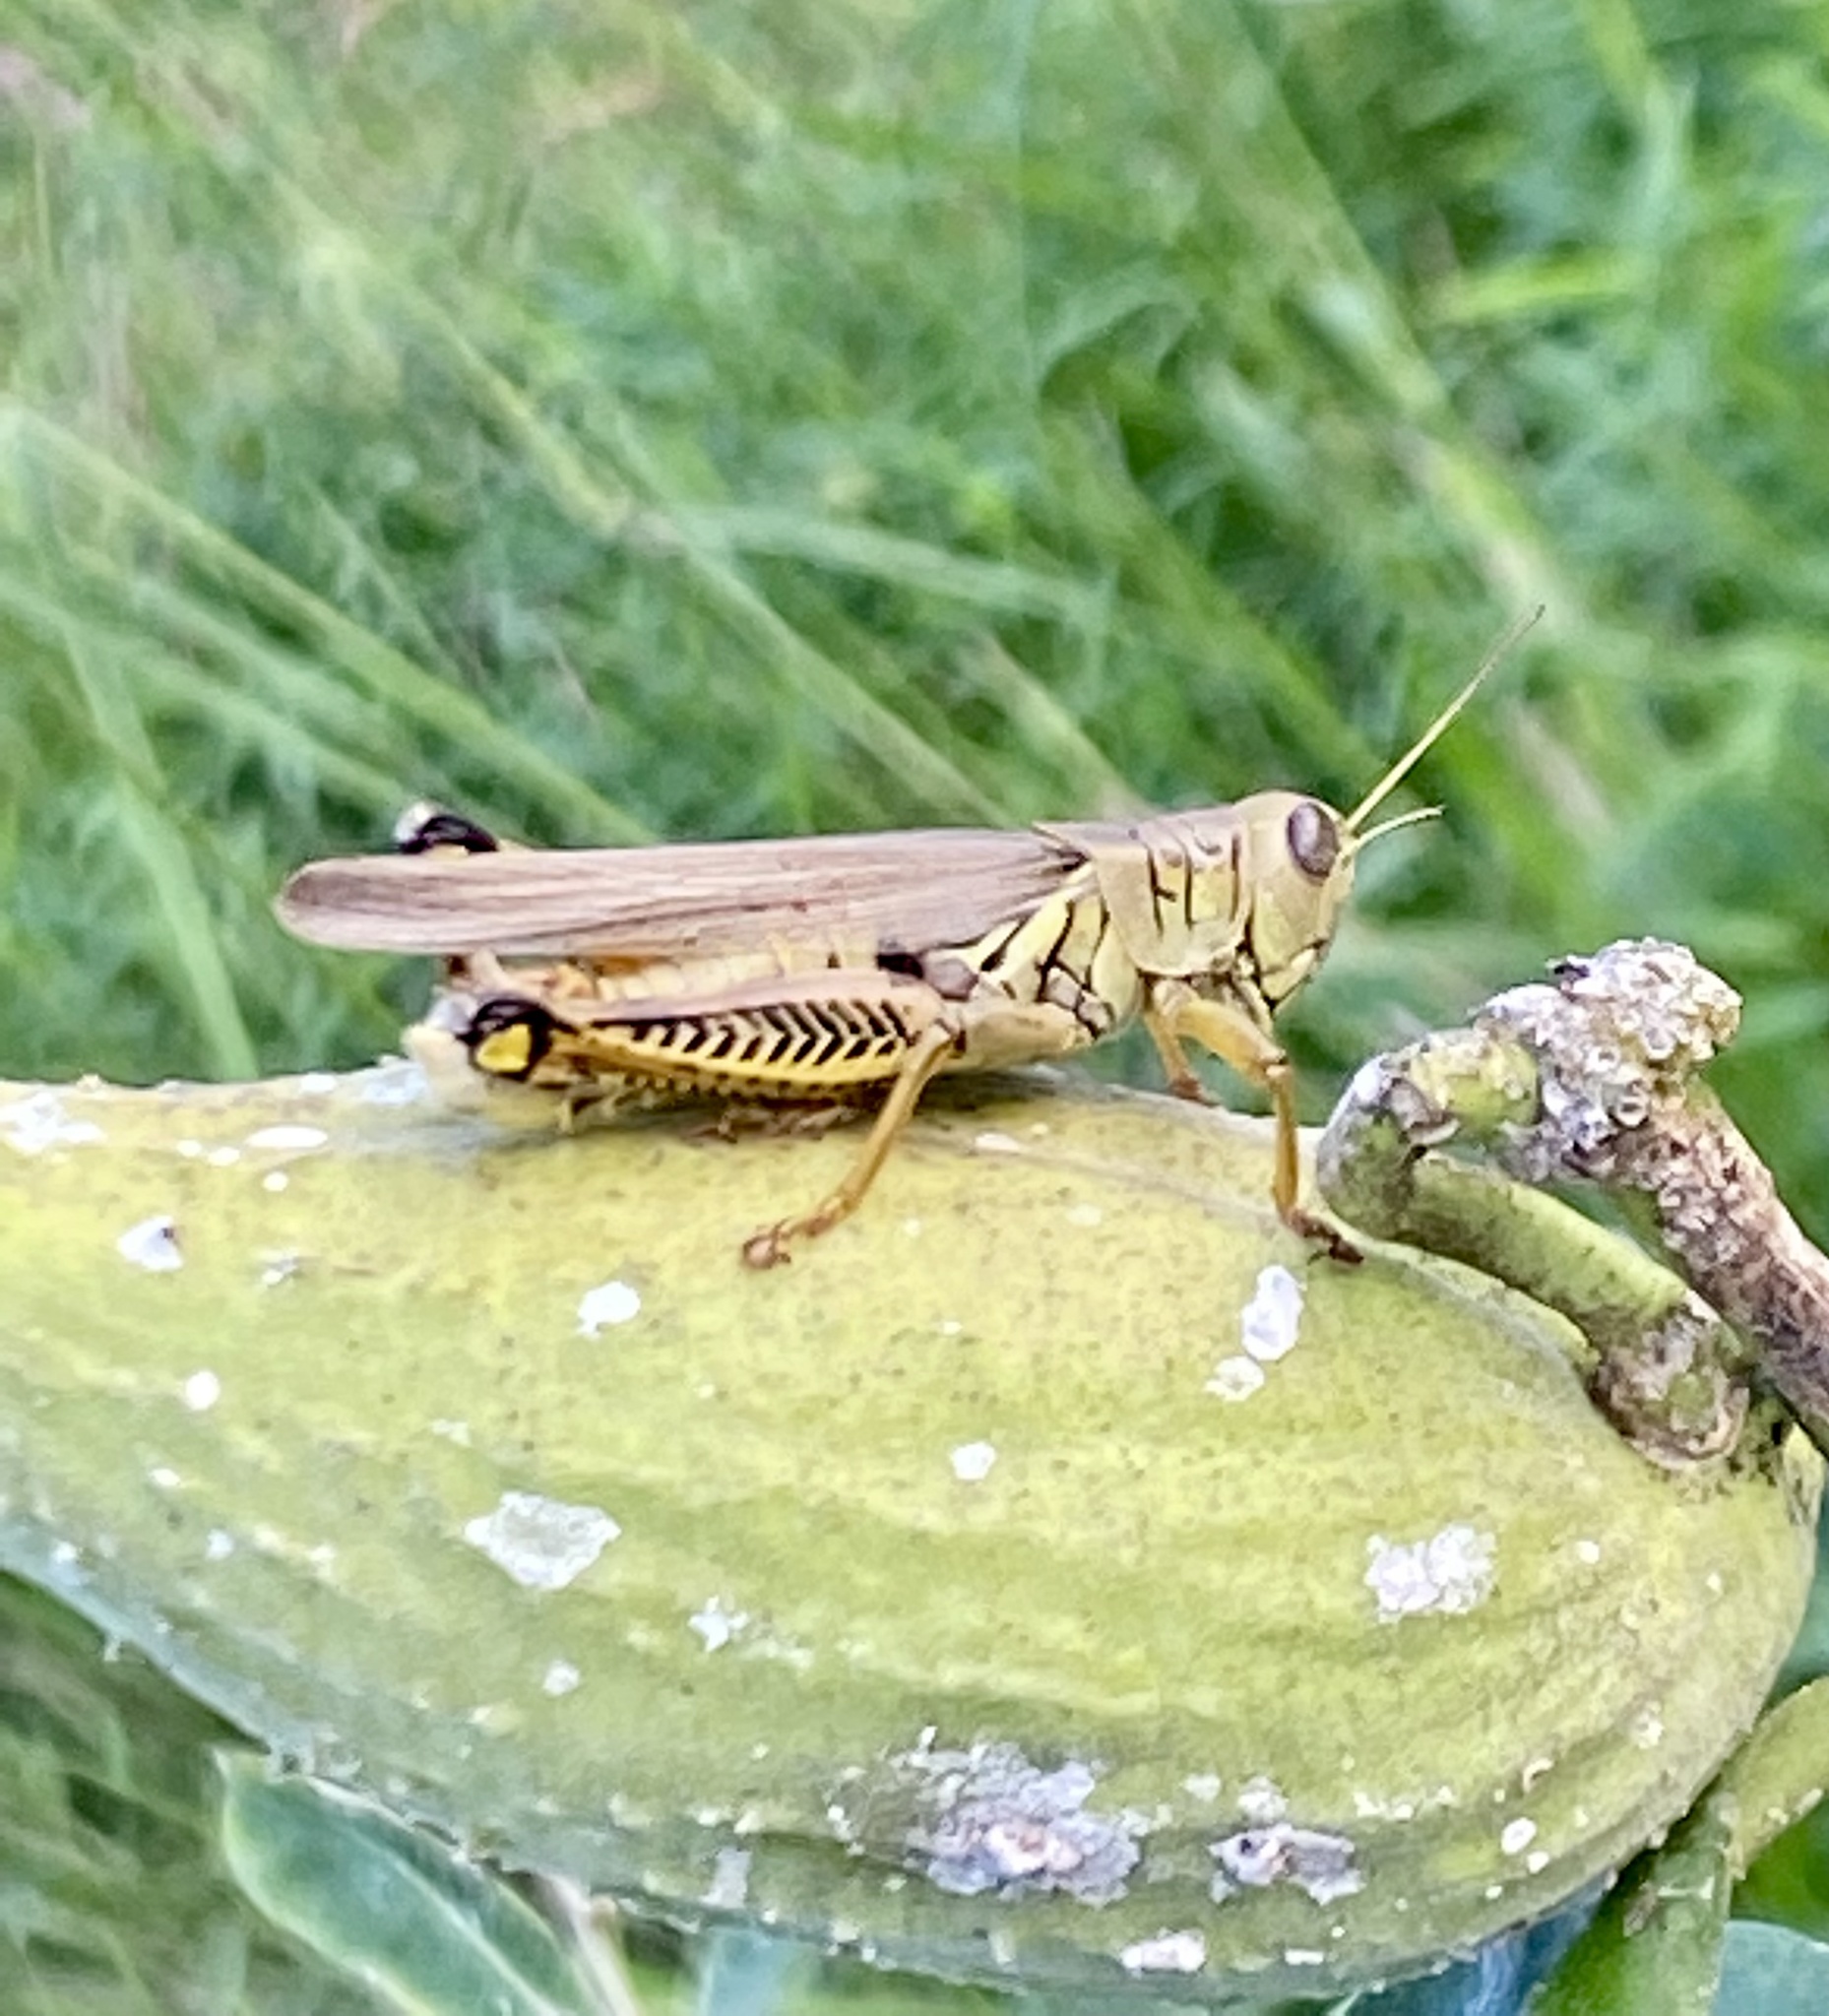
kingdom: Animalia
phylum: Arthropoda
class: Insecta
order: Orthoptera
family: Acrididae
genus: Melanoplus
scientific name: Melanoplus differentialis
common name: Differential grasshopper
